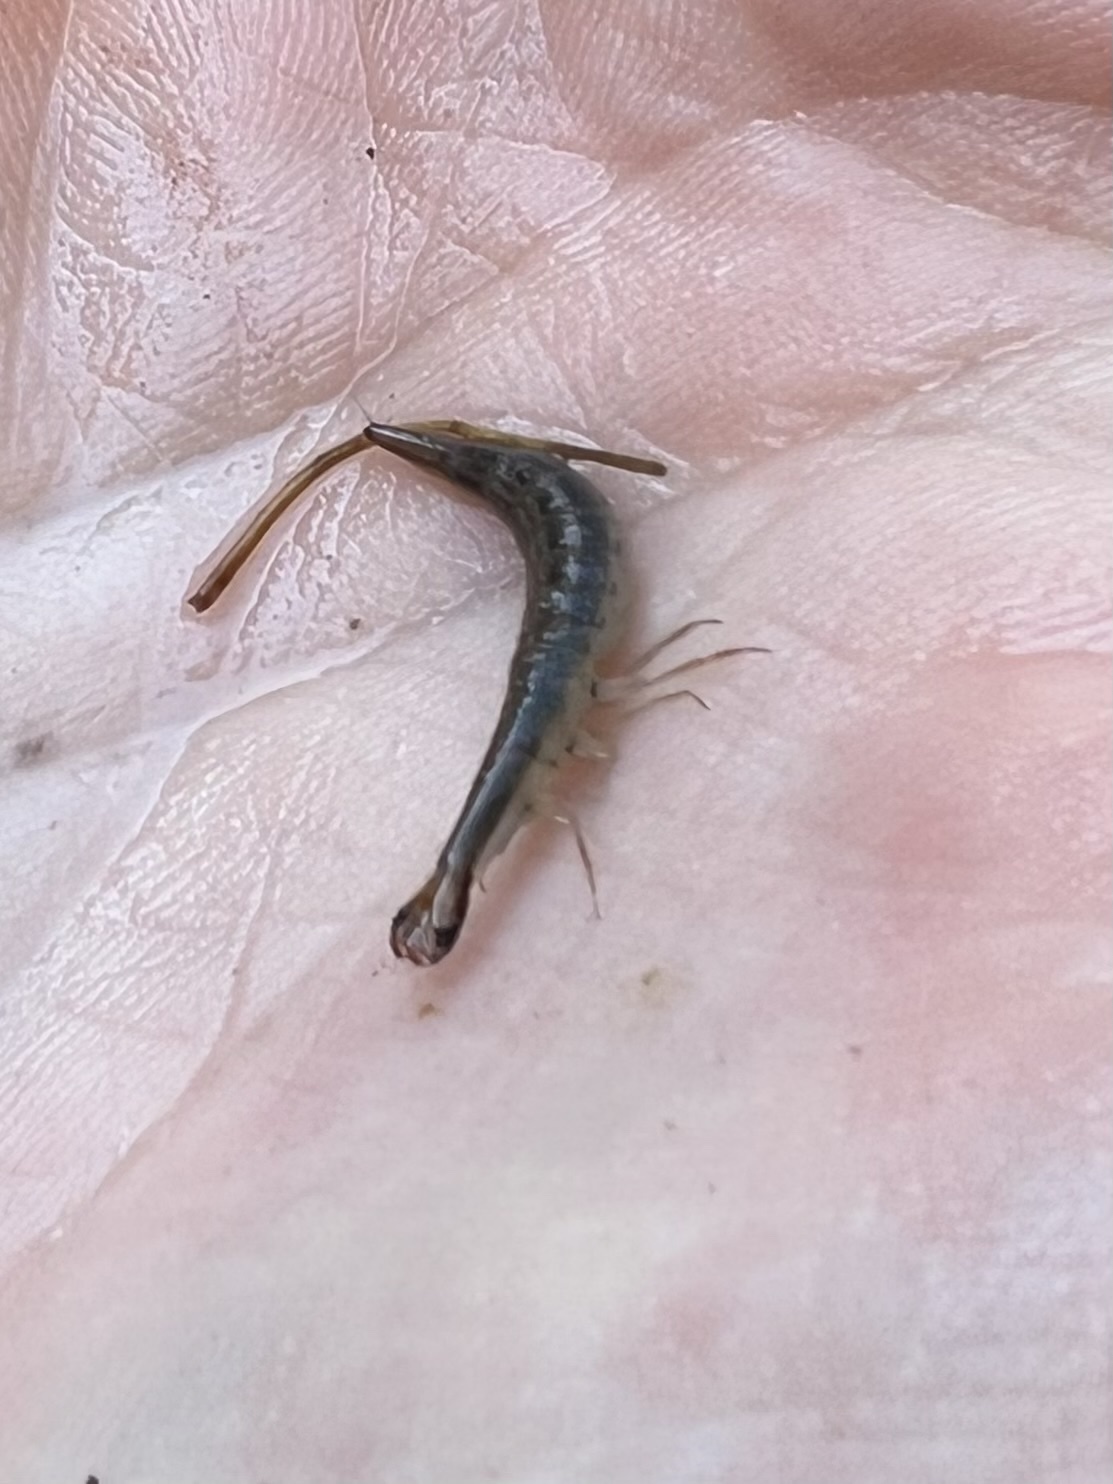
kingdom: Animalia
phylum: Arthropoda
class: Insecta
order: Coleoptera
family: Dytiscidae
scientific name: Dytiscidae
